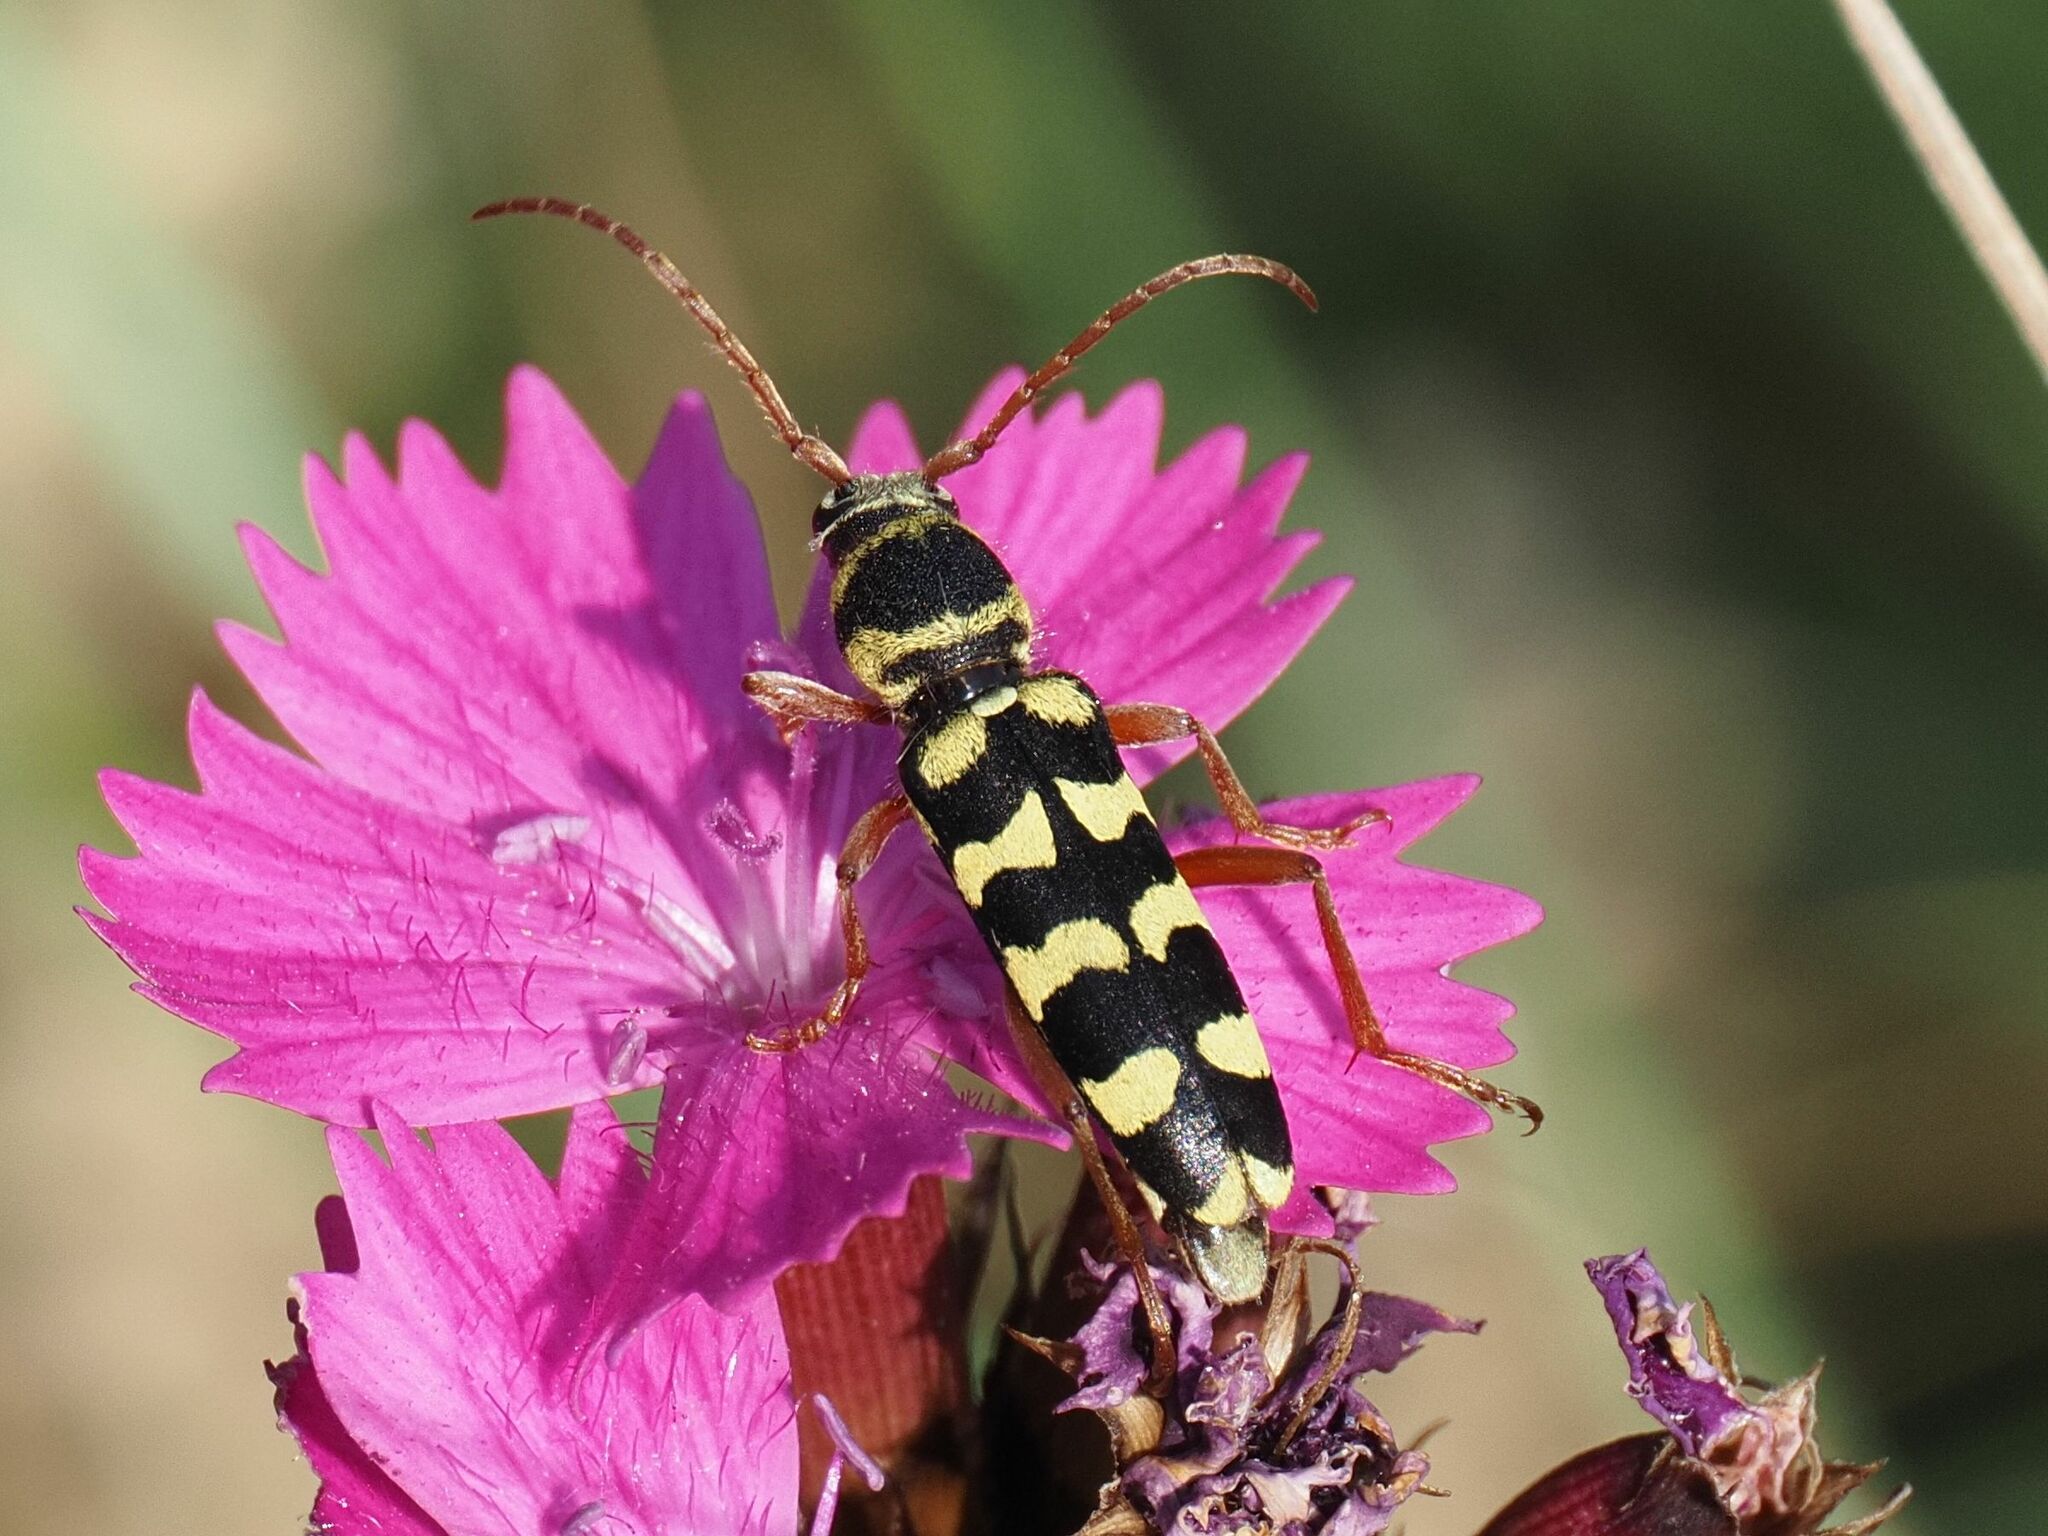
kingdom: Animalia
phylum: Arthropoda
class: Insecta
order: Coleoptera
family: Cerambycidae
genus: Plagionotus
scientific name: Plagionotus floralis
